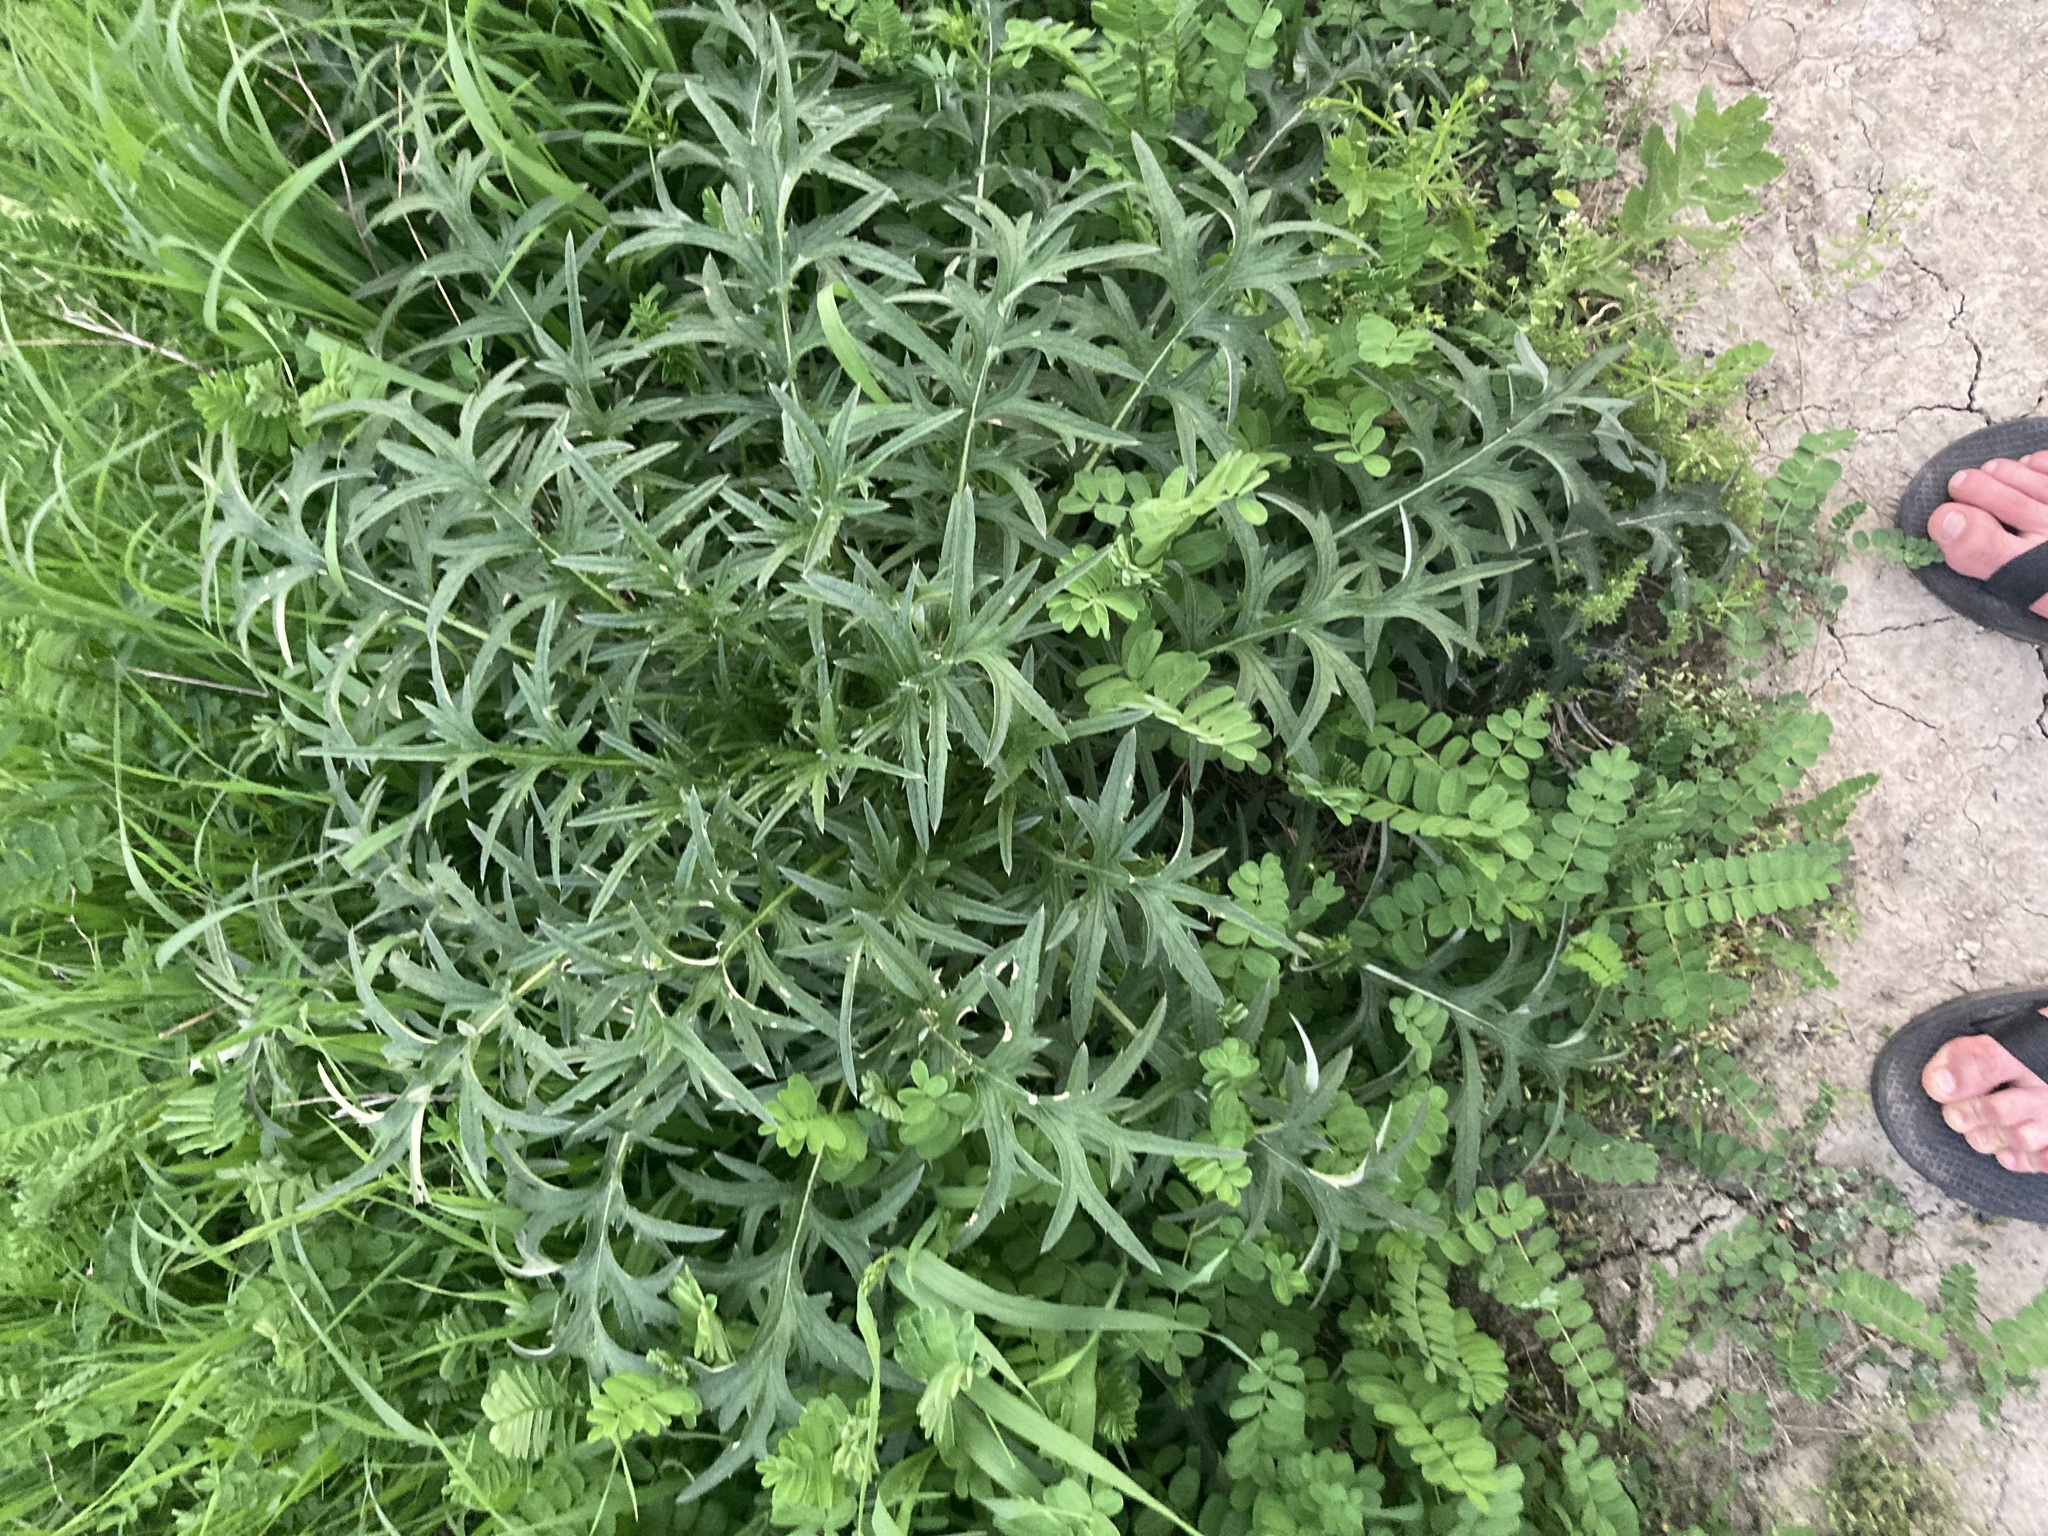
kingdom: Plantae
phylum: Tracheophyta
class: Magnoliopsida
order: Asterales
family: Asteraceae
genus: Cirsium
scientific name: Cirsium discolor
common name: Field thistle
